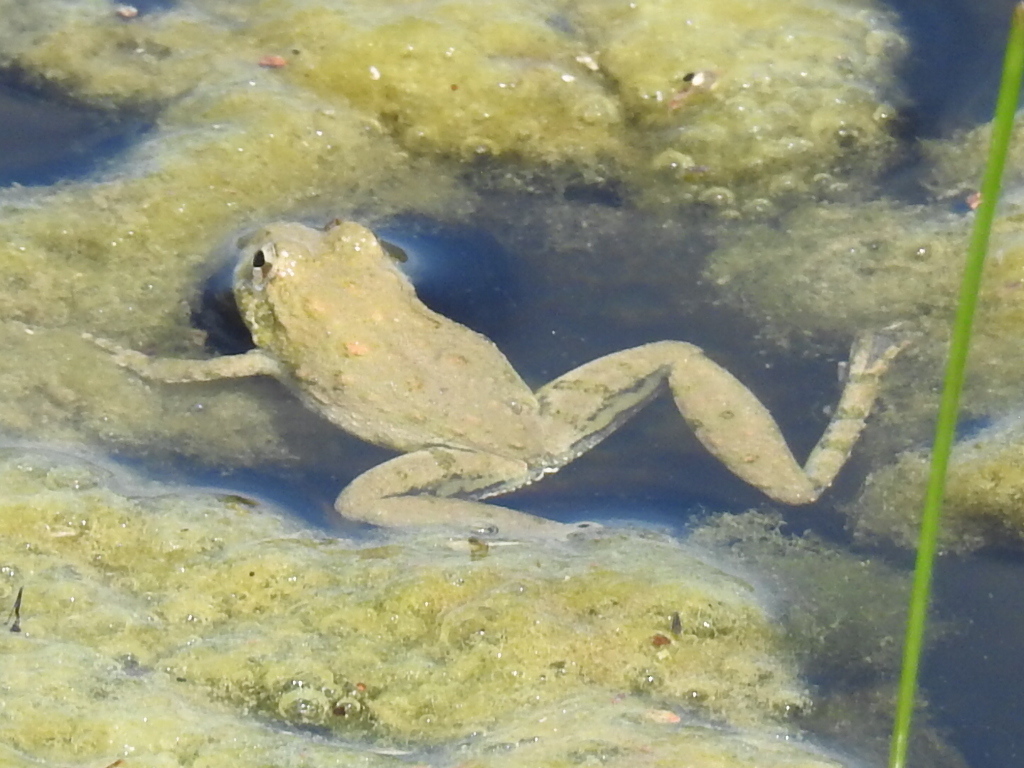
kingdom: Animalia
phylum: Chordata
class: Amphibia
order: Anura
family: Hylidae
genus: Acris
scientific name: Acris blanchardi
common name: Blanchard's cricket frog
